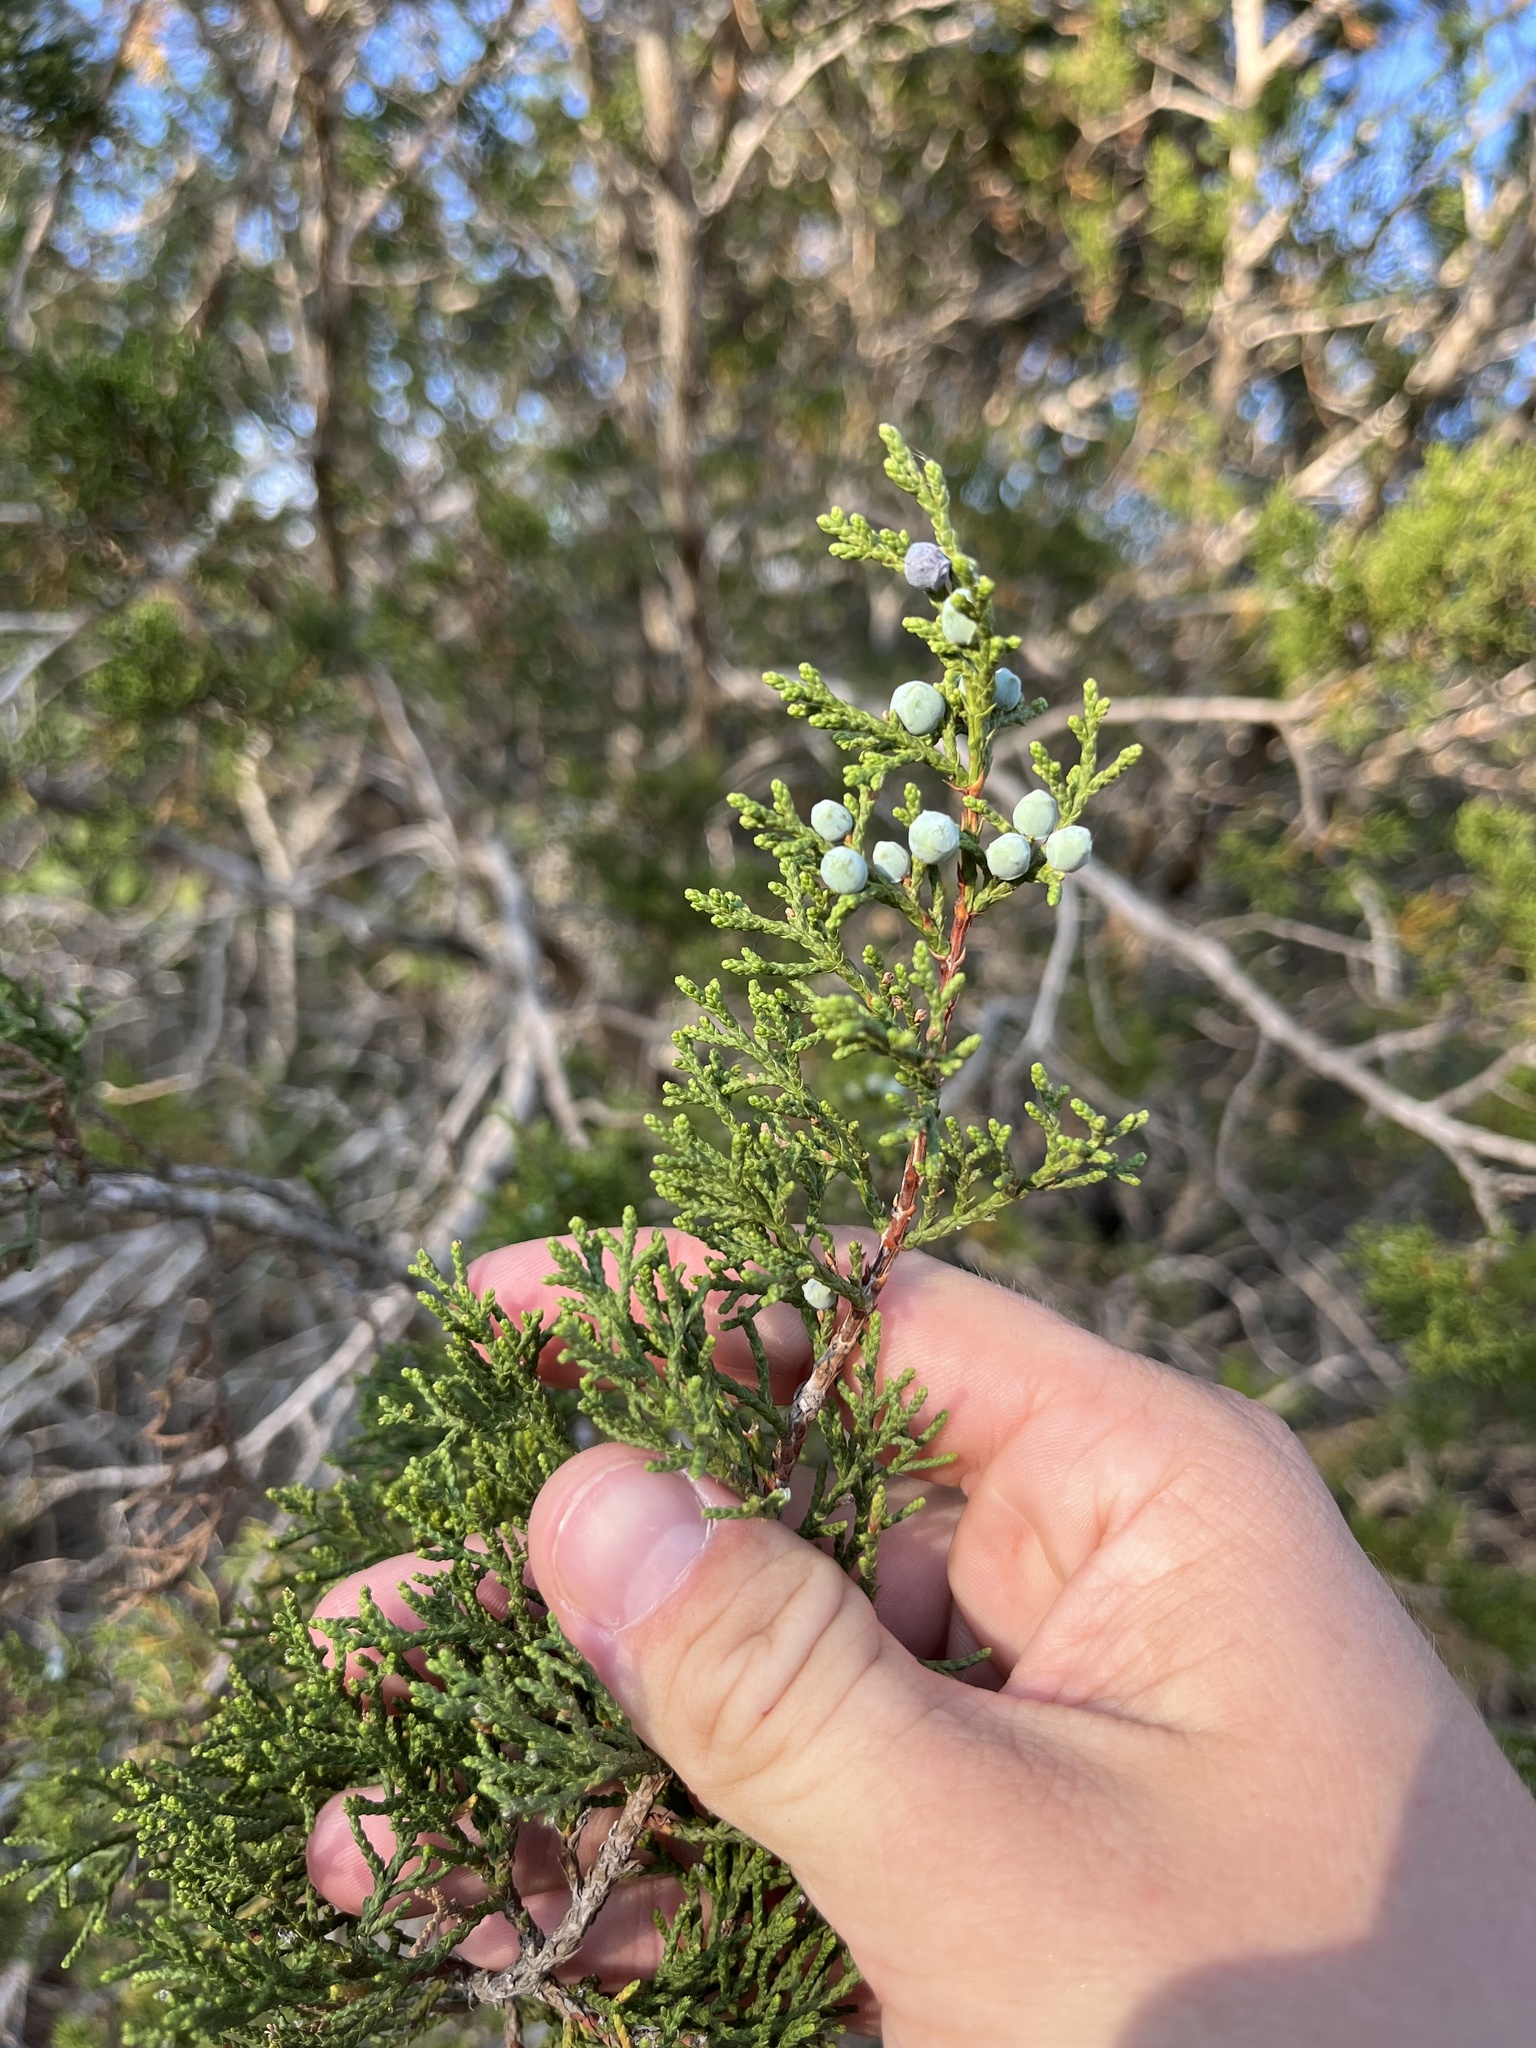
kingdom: Plantae
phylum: Tracheophyta
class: Pinopsida
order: Pinales
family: Cupressaceae
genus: Juniperus
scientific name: Juniperus ashei
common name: Mexican juniper
